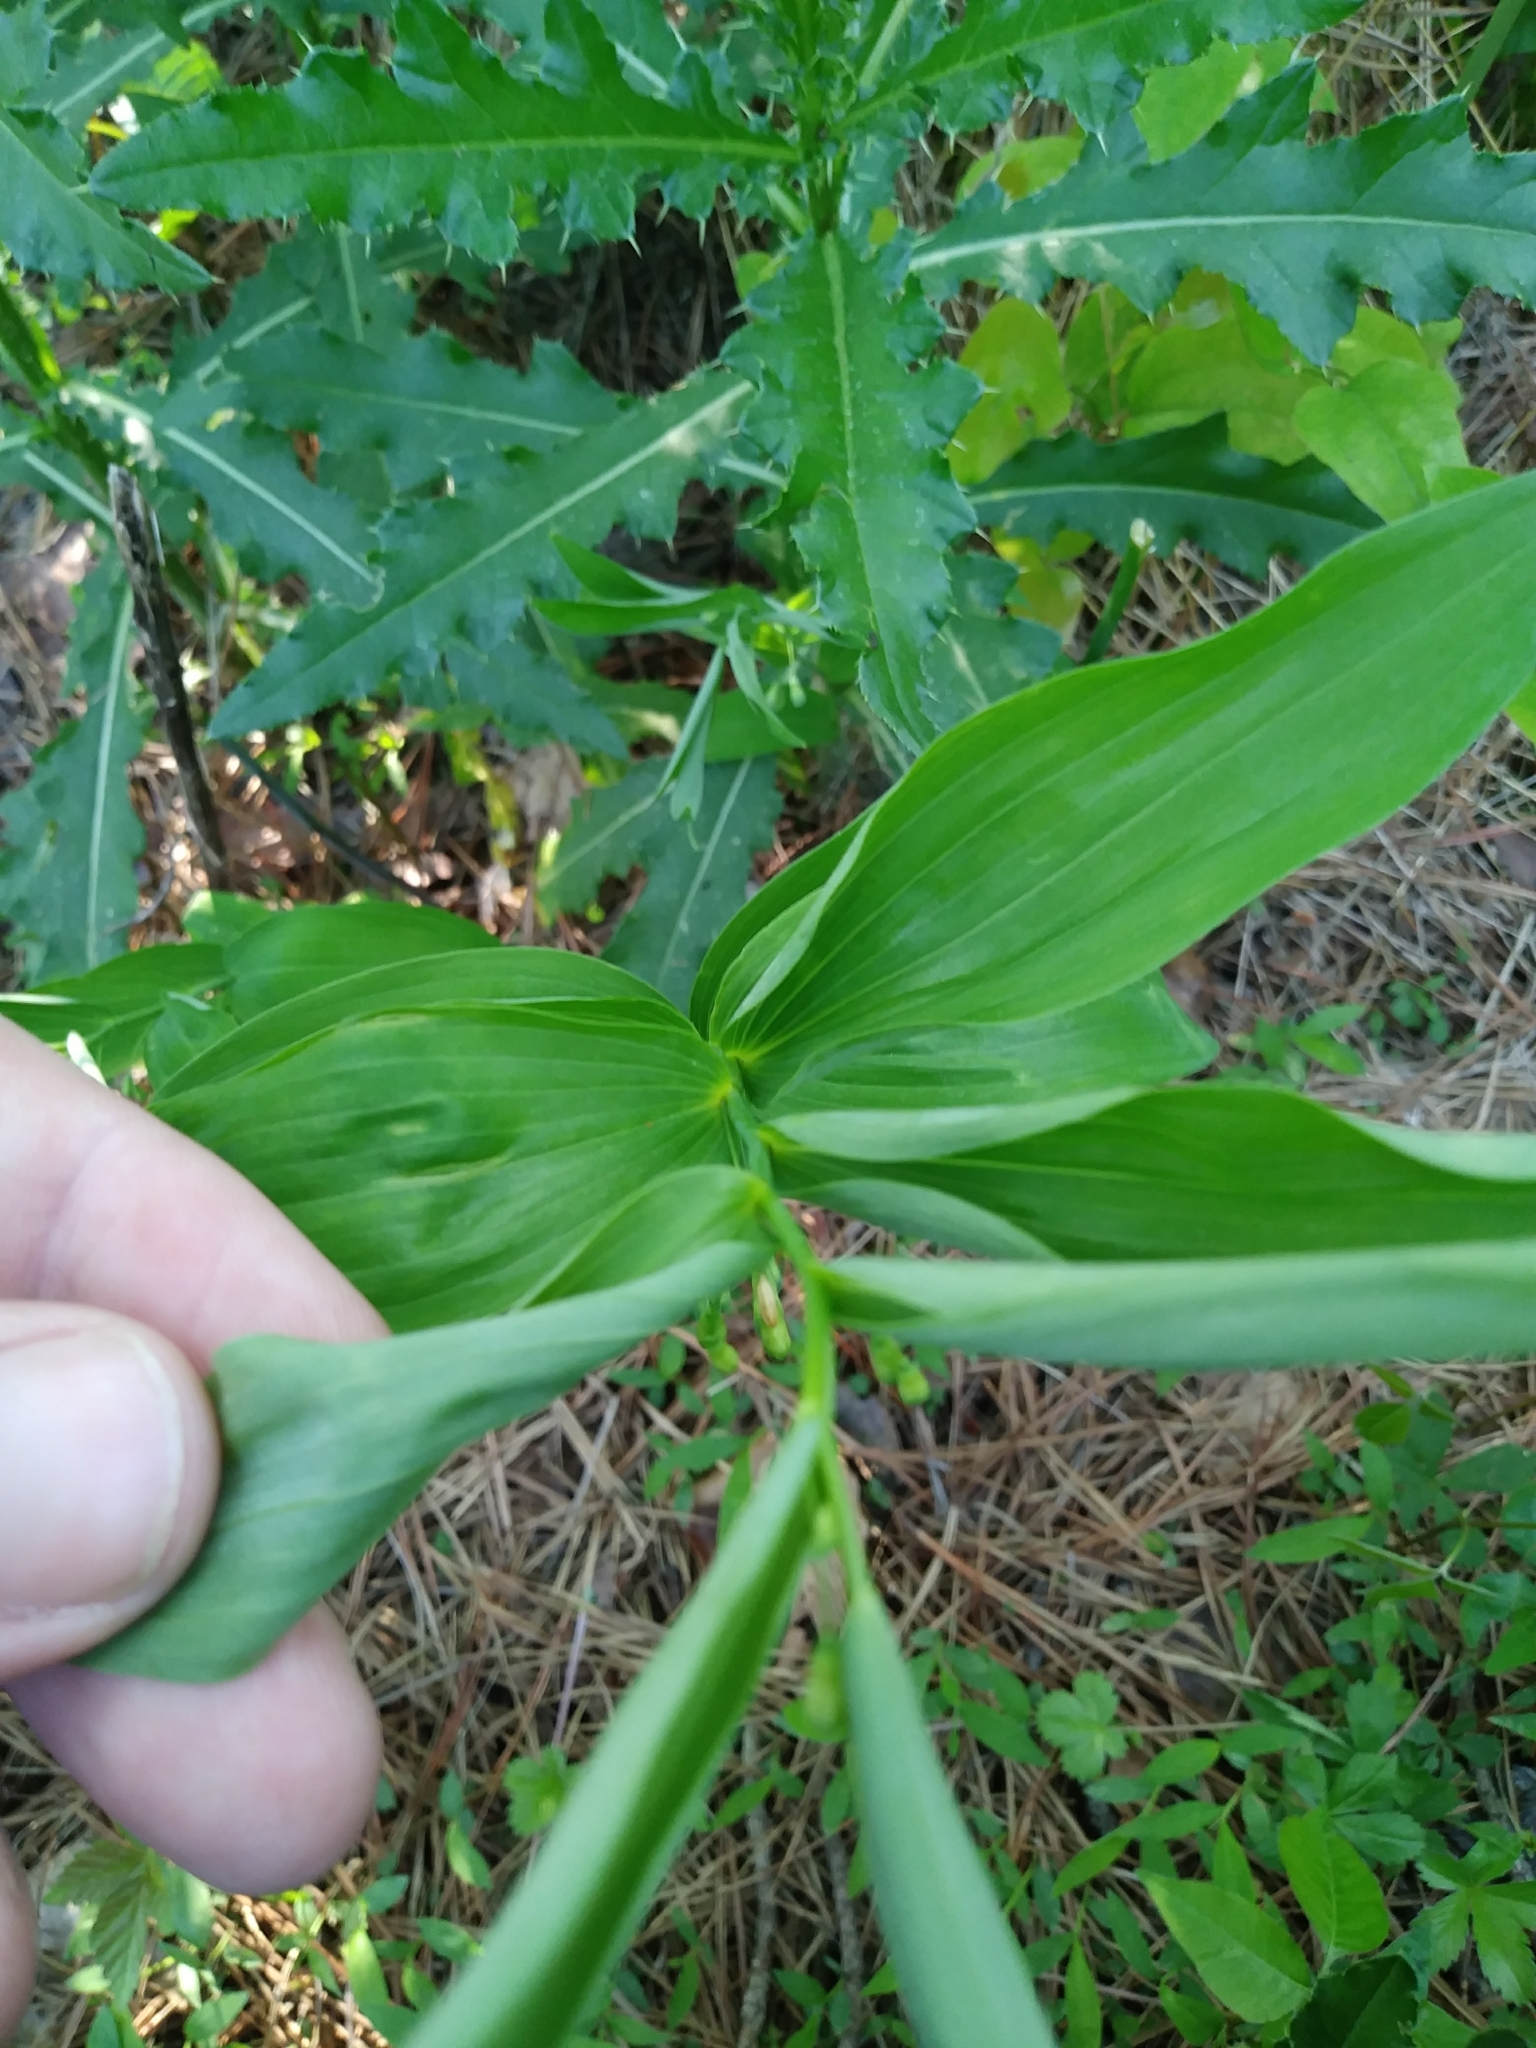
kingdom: Plantae
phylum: Tracheophyta
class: Liliopsida
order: Asparagales
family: Asparagaceae
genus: Polygonatum
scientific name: Polygonatum biflorum
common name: American solomon's-seal
